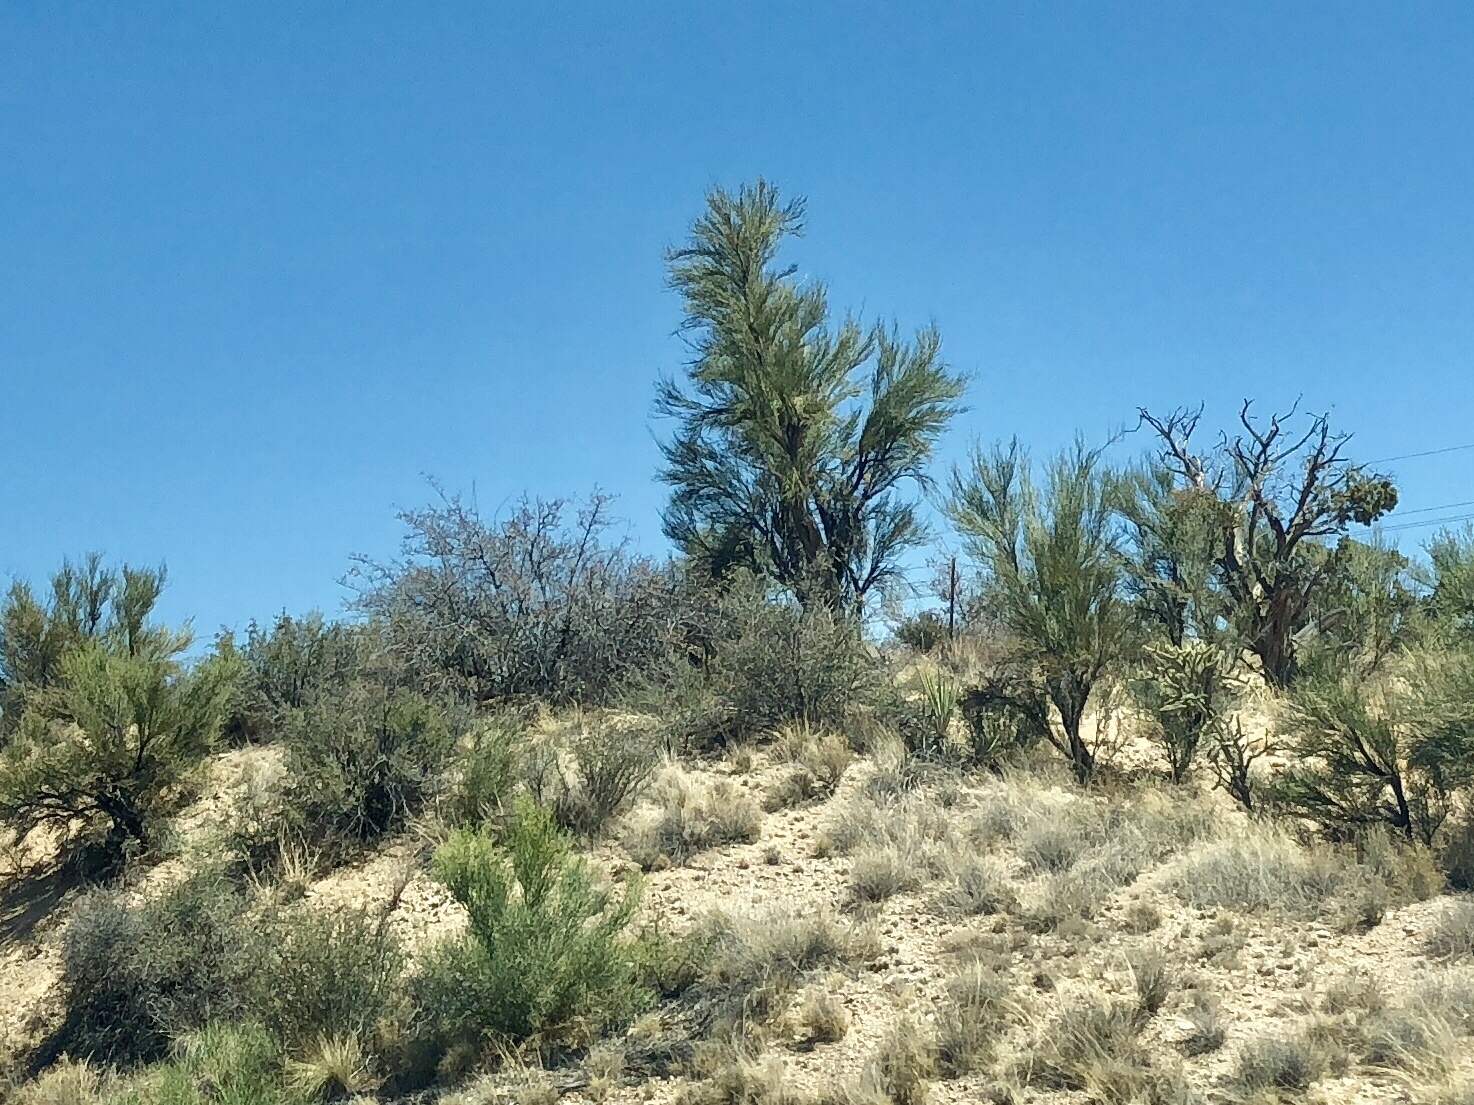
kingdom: Plantae
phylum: Tracheophyta
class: Magnoliopsida
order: Celastrales
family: Celastraceae
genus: Canotia
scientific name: Canotia holacantha
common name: Crucifixion thorns
